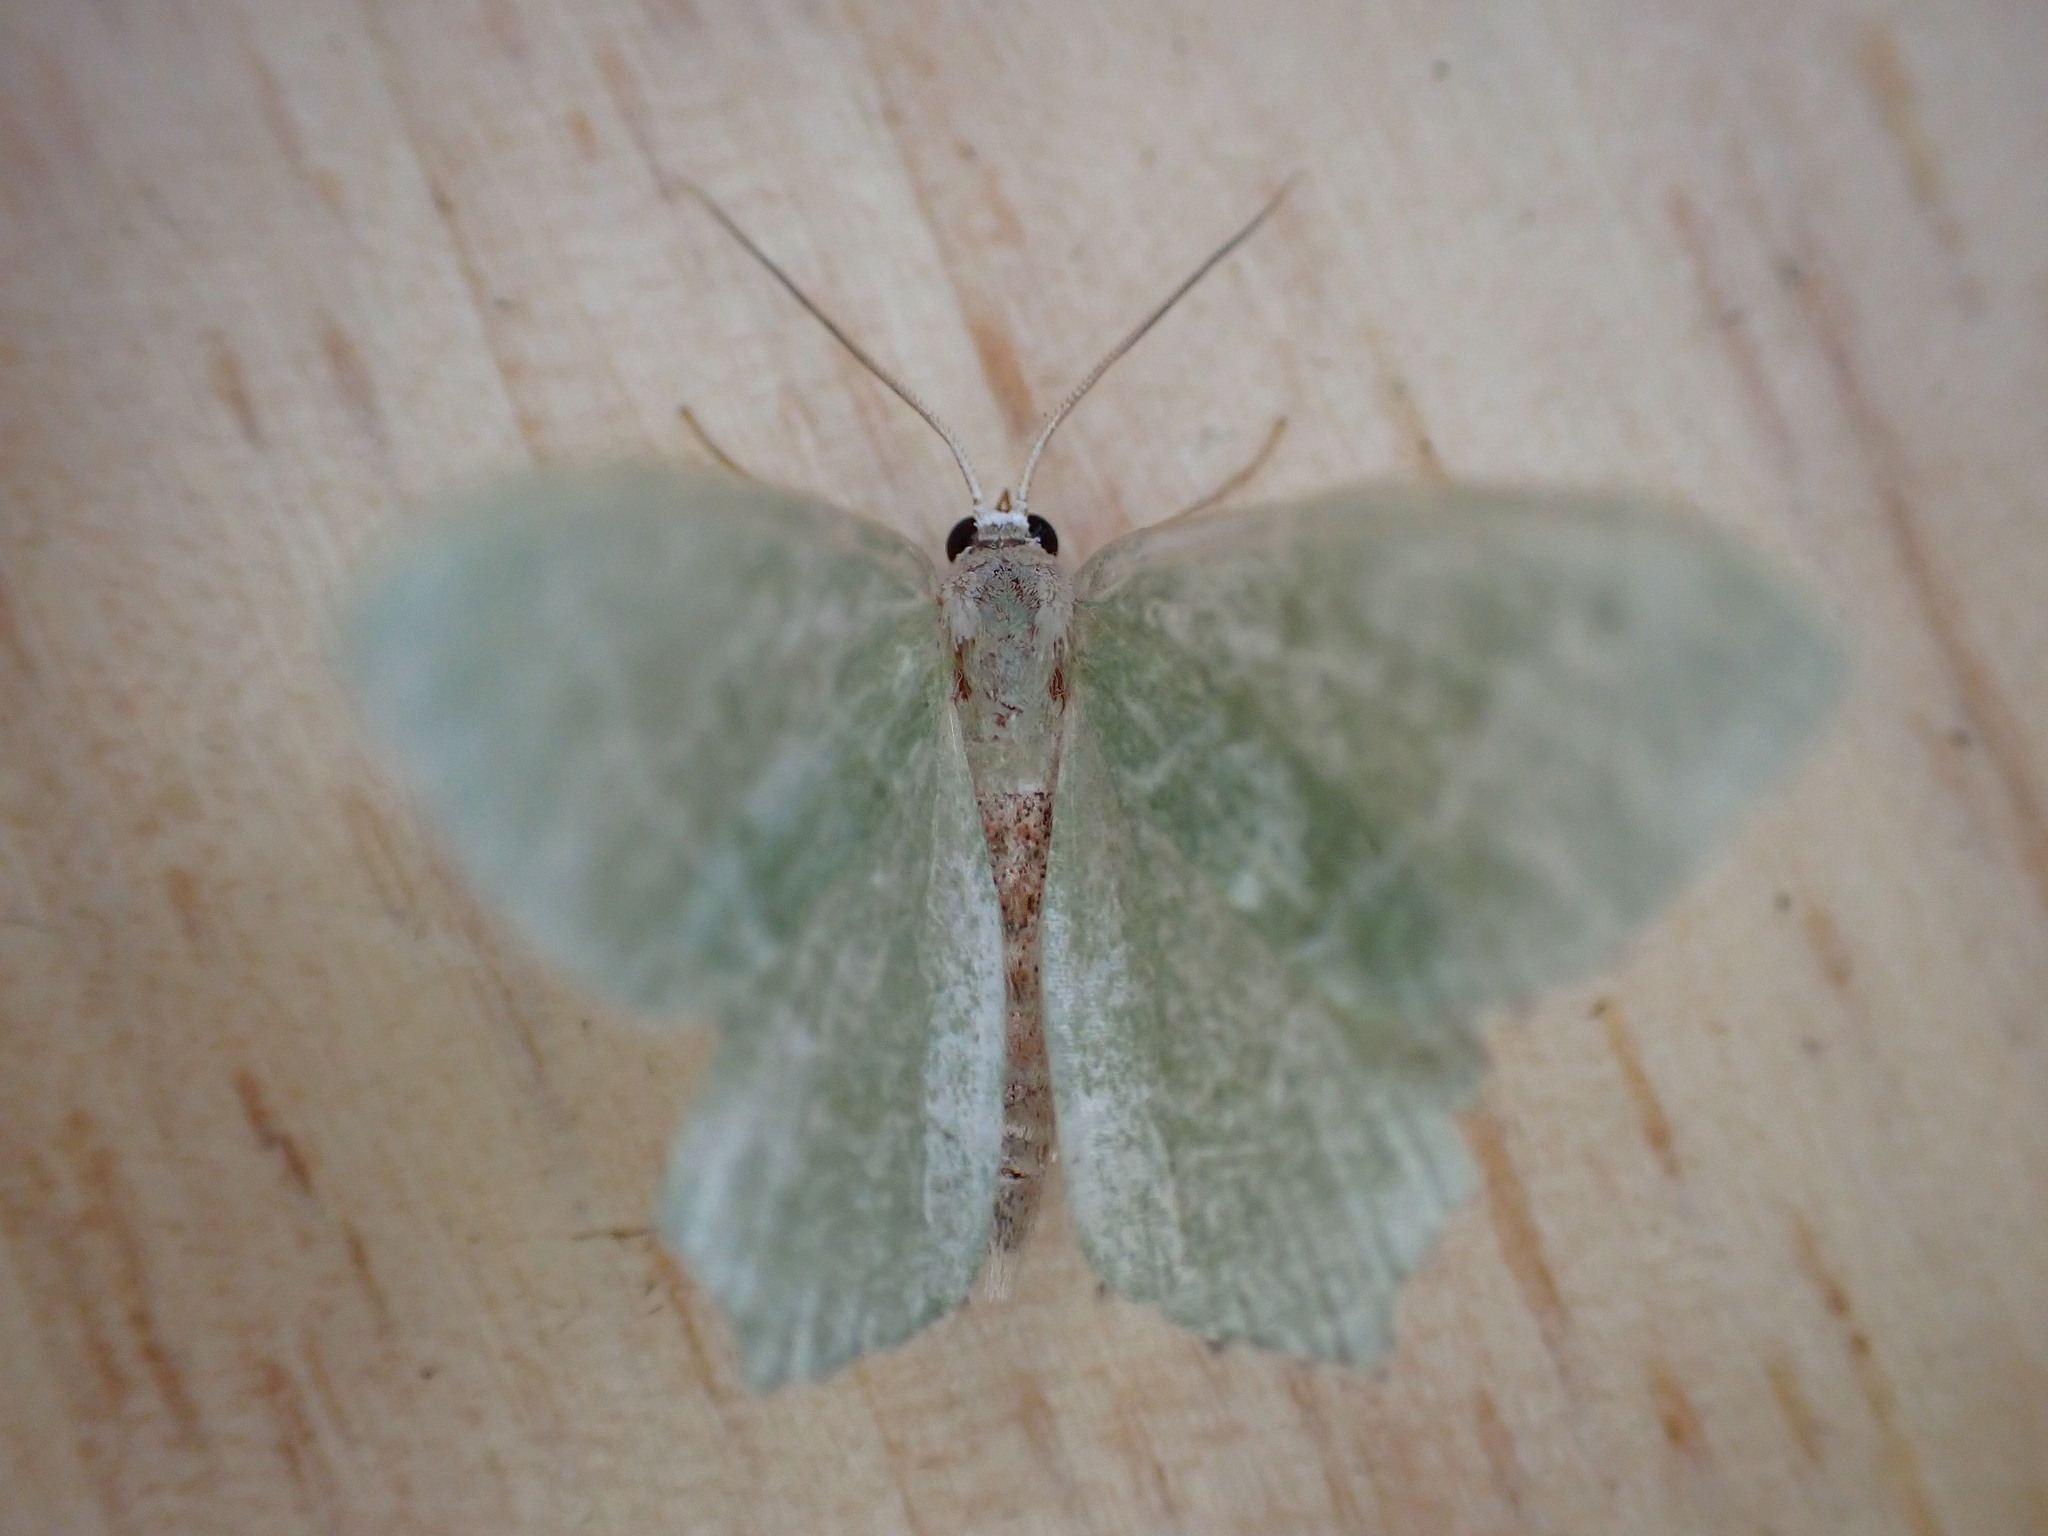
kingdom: Animalia
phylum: Arthropoda
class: Insecta
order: Lepidoptera
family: Geometridae
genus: Hemithea
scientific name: Hemithea aestivaria
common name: Common emerald
